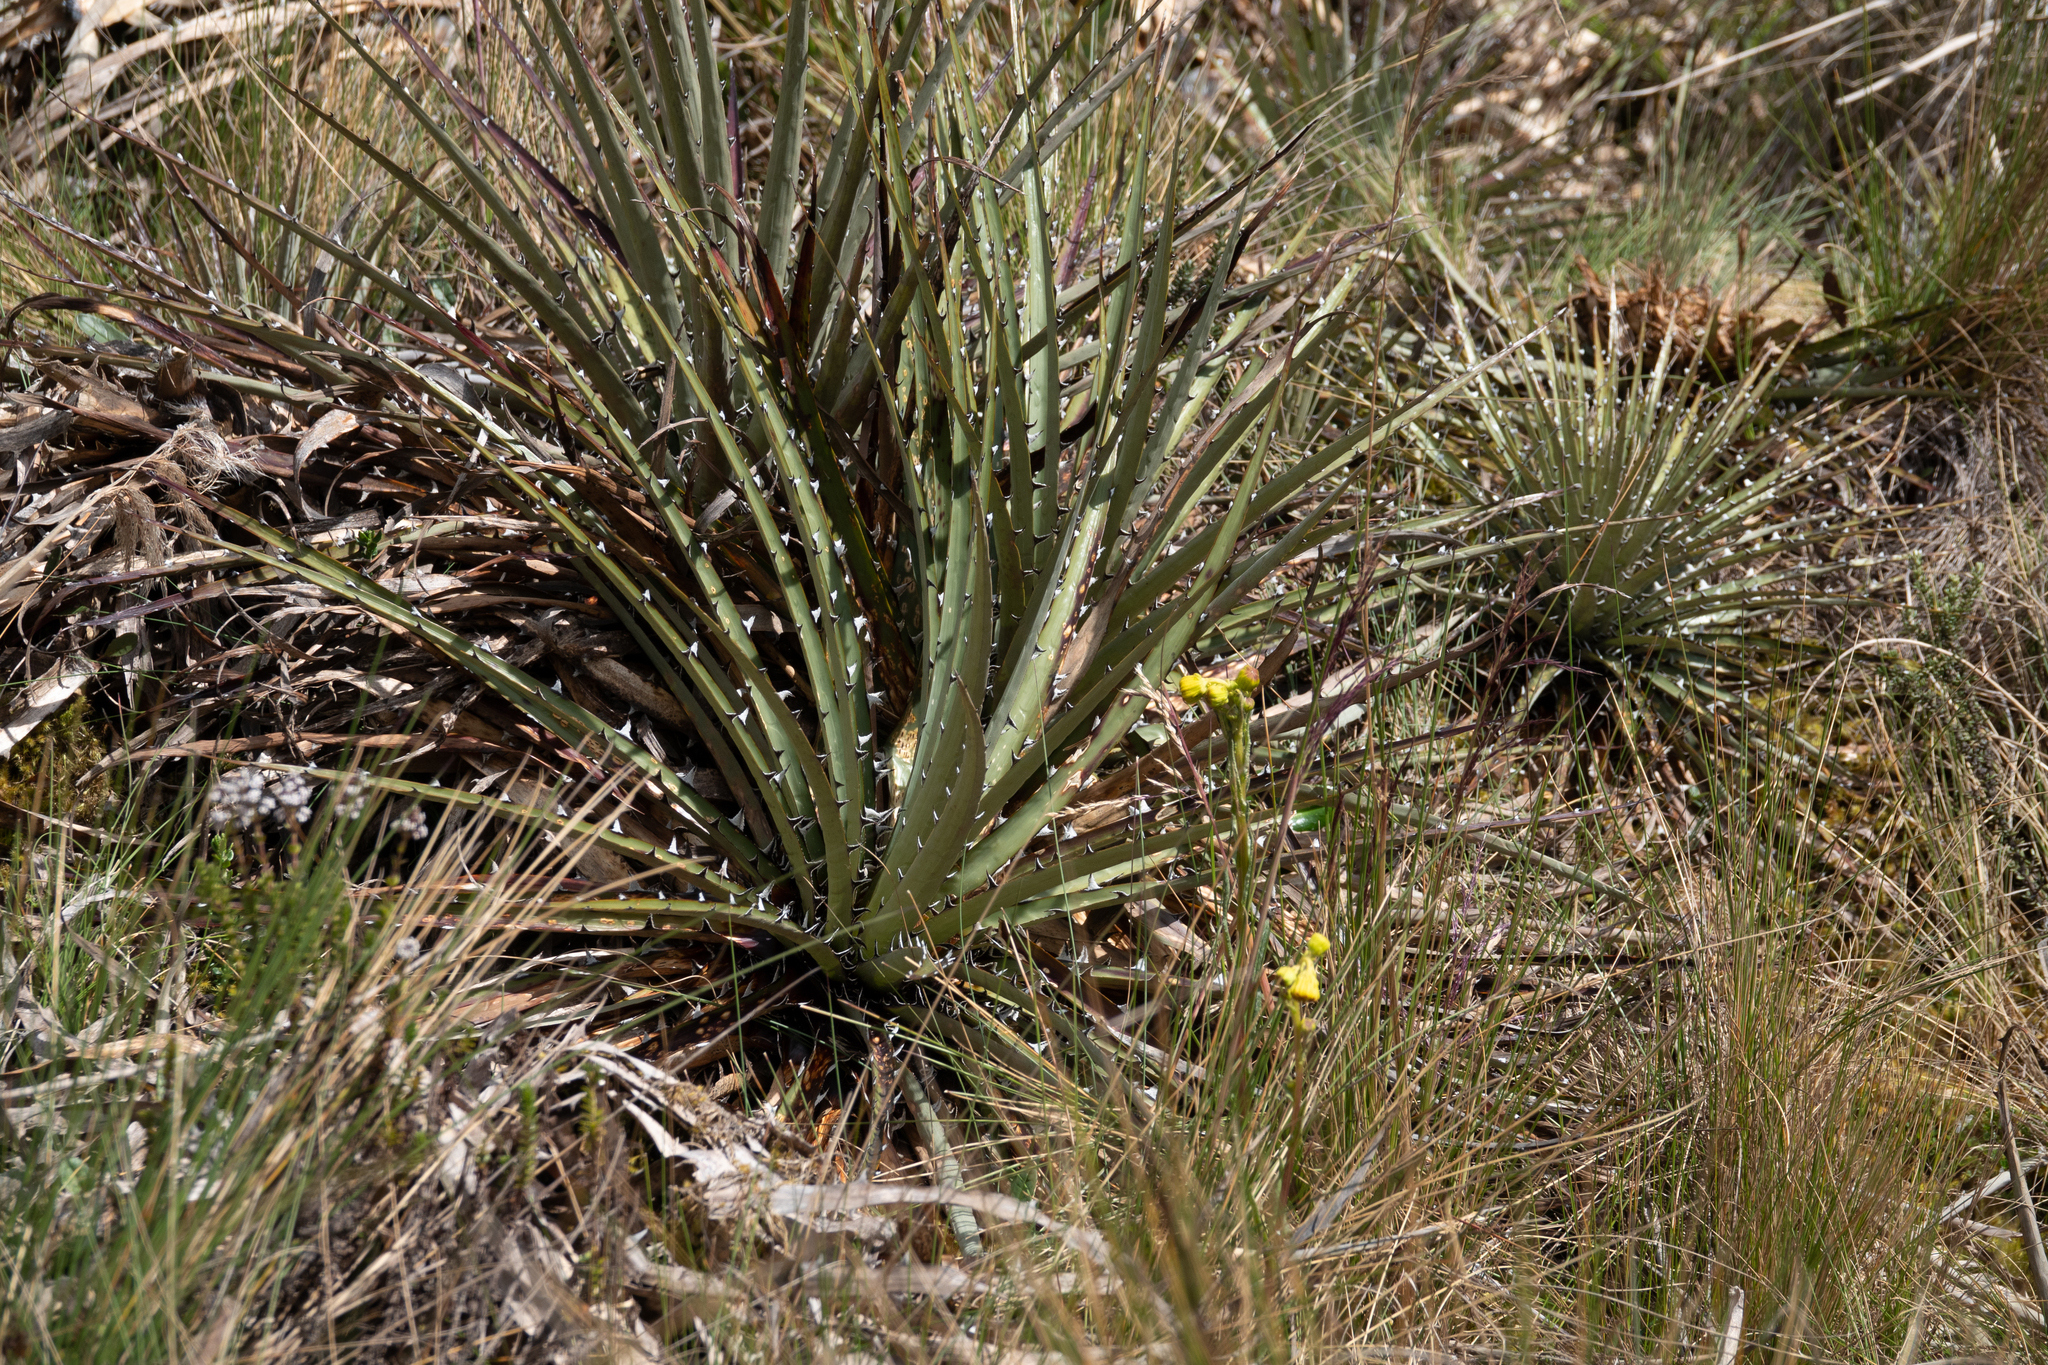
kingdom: Plantae
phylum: Tracheophyta
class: Liliopsida
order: Poales
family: Bromeliaceae
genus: Puya
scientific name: Puya clava-herculis
